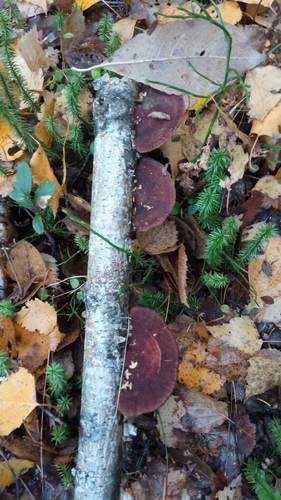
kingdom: Fungi
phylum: Basidiomycota
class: Agaricomycetes
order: Polyporales
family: Polyporaceae
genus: Daedaleopsis
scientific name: Daedaleopsis tricolor
